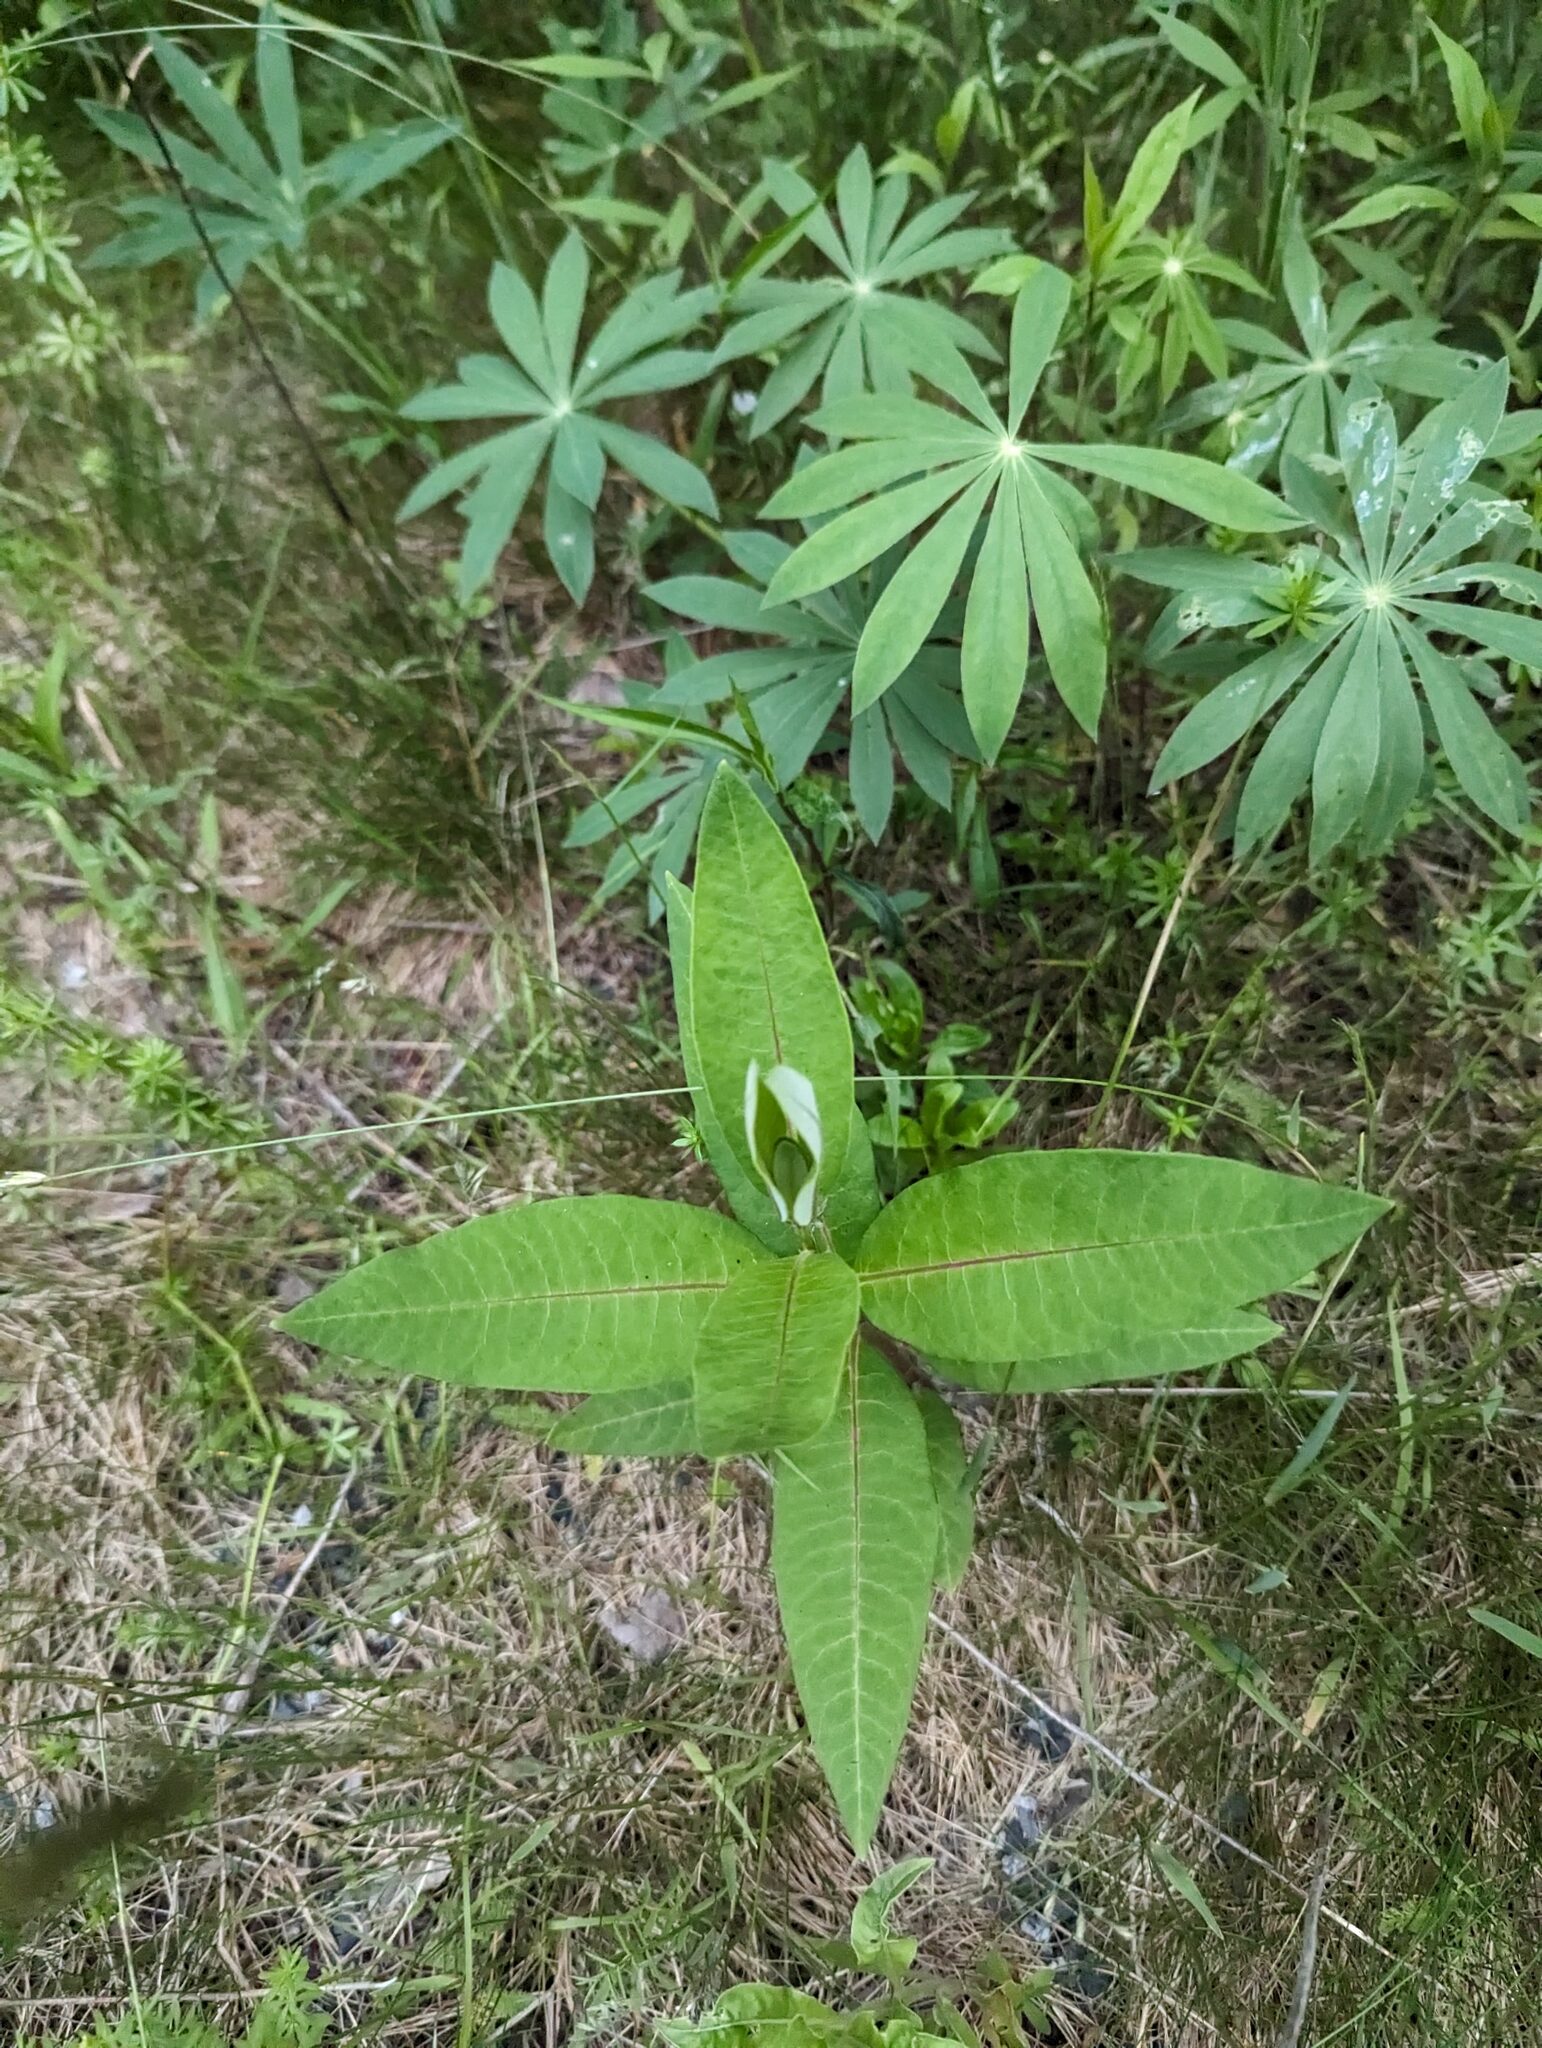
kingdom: Plantae
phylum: Tracheophyta
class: Magnoliopsida
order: Gentianales
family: Apocynaceae
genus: Asclepias
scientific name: Asclepias syriaca
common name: Common milkweed
